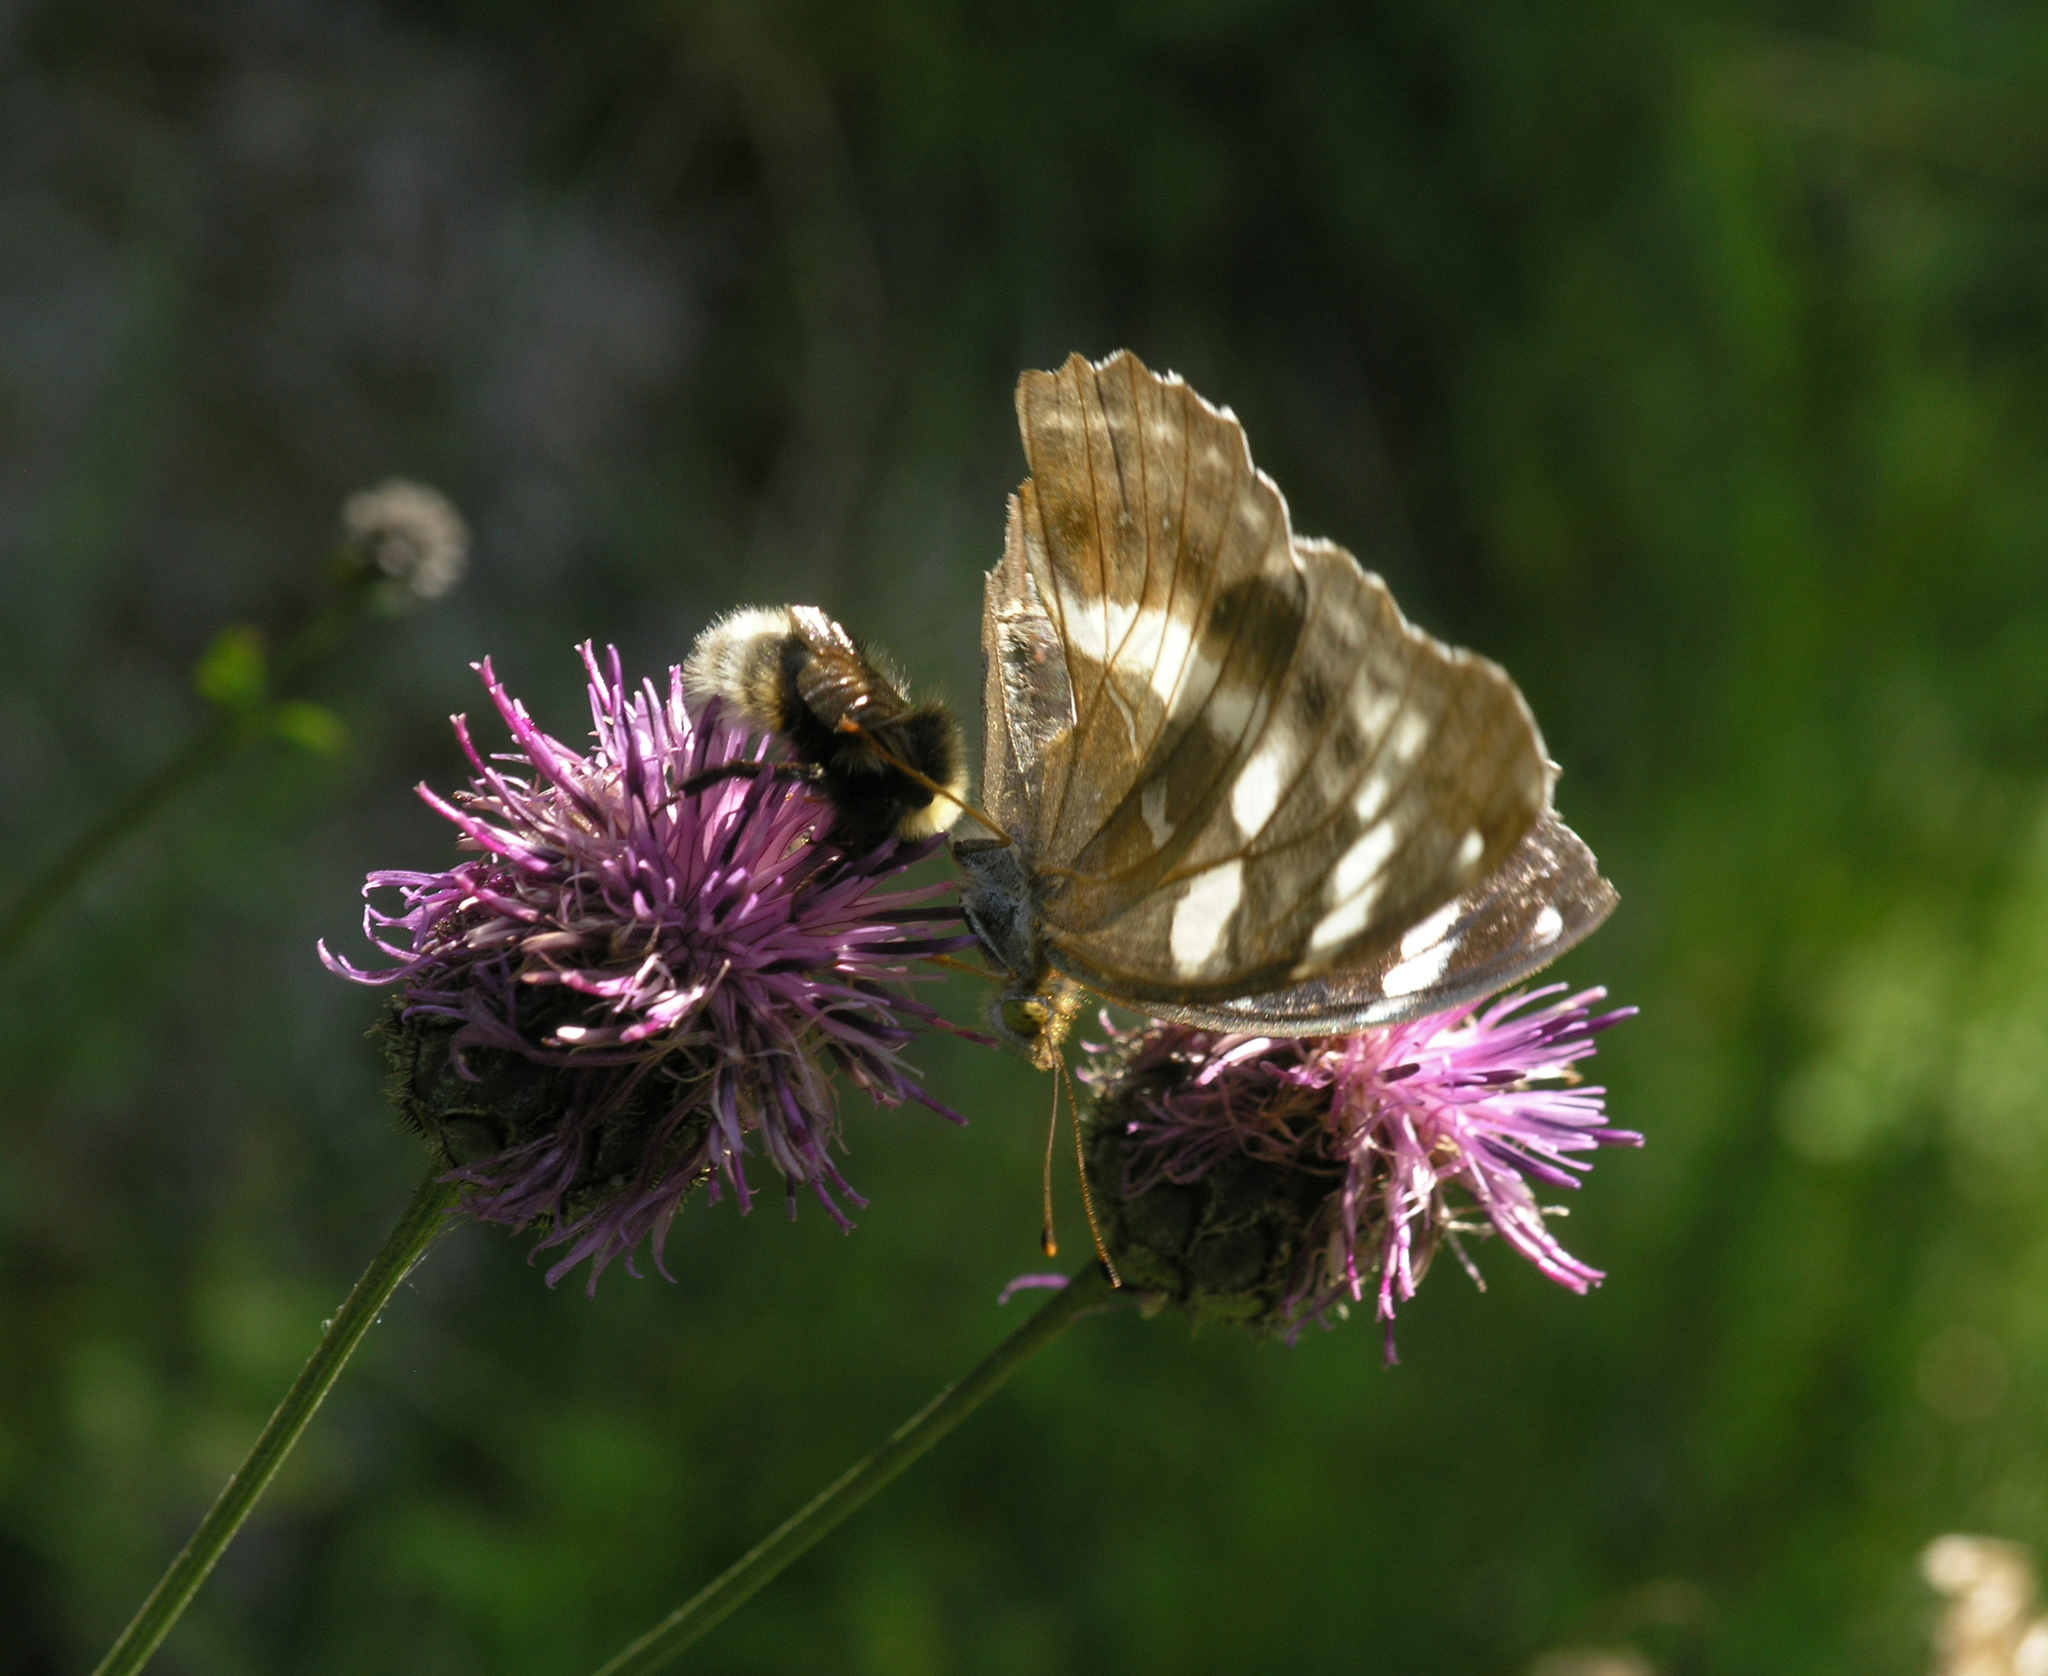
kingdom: Animalia
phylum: Arthropoda
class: Insecta
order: Lepidoptera
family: Nymphalidae
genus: Damora
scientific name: Damora sagana
